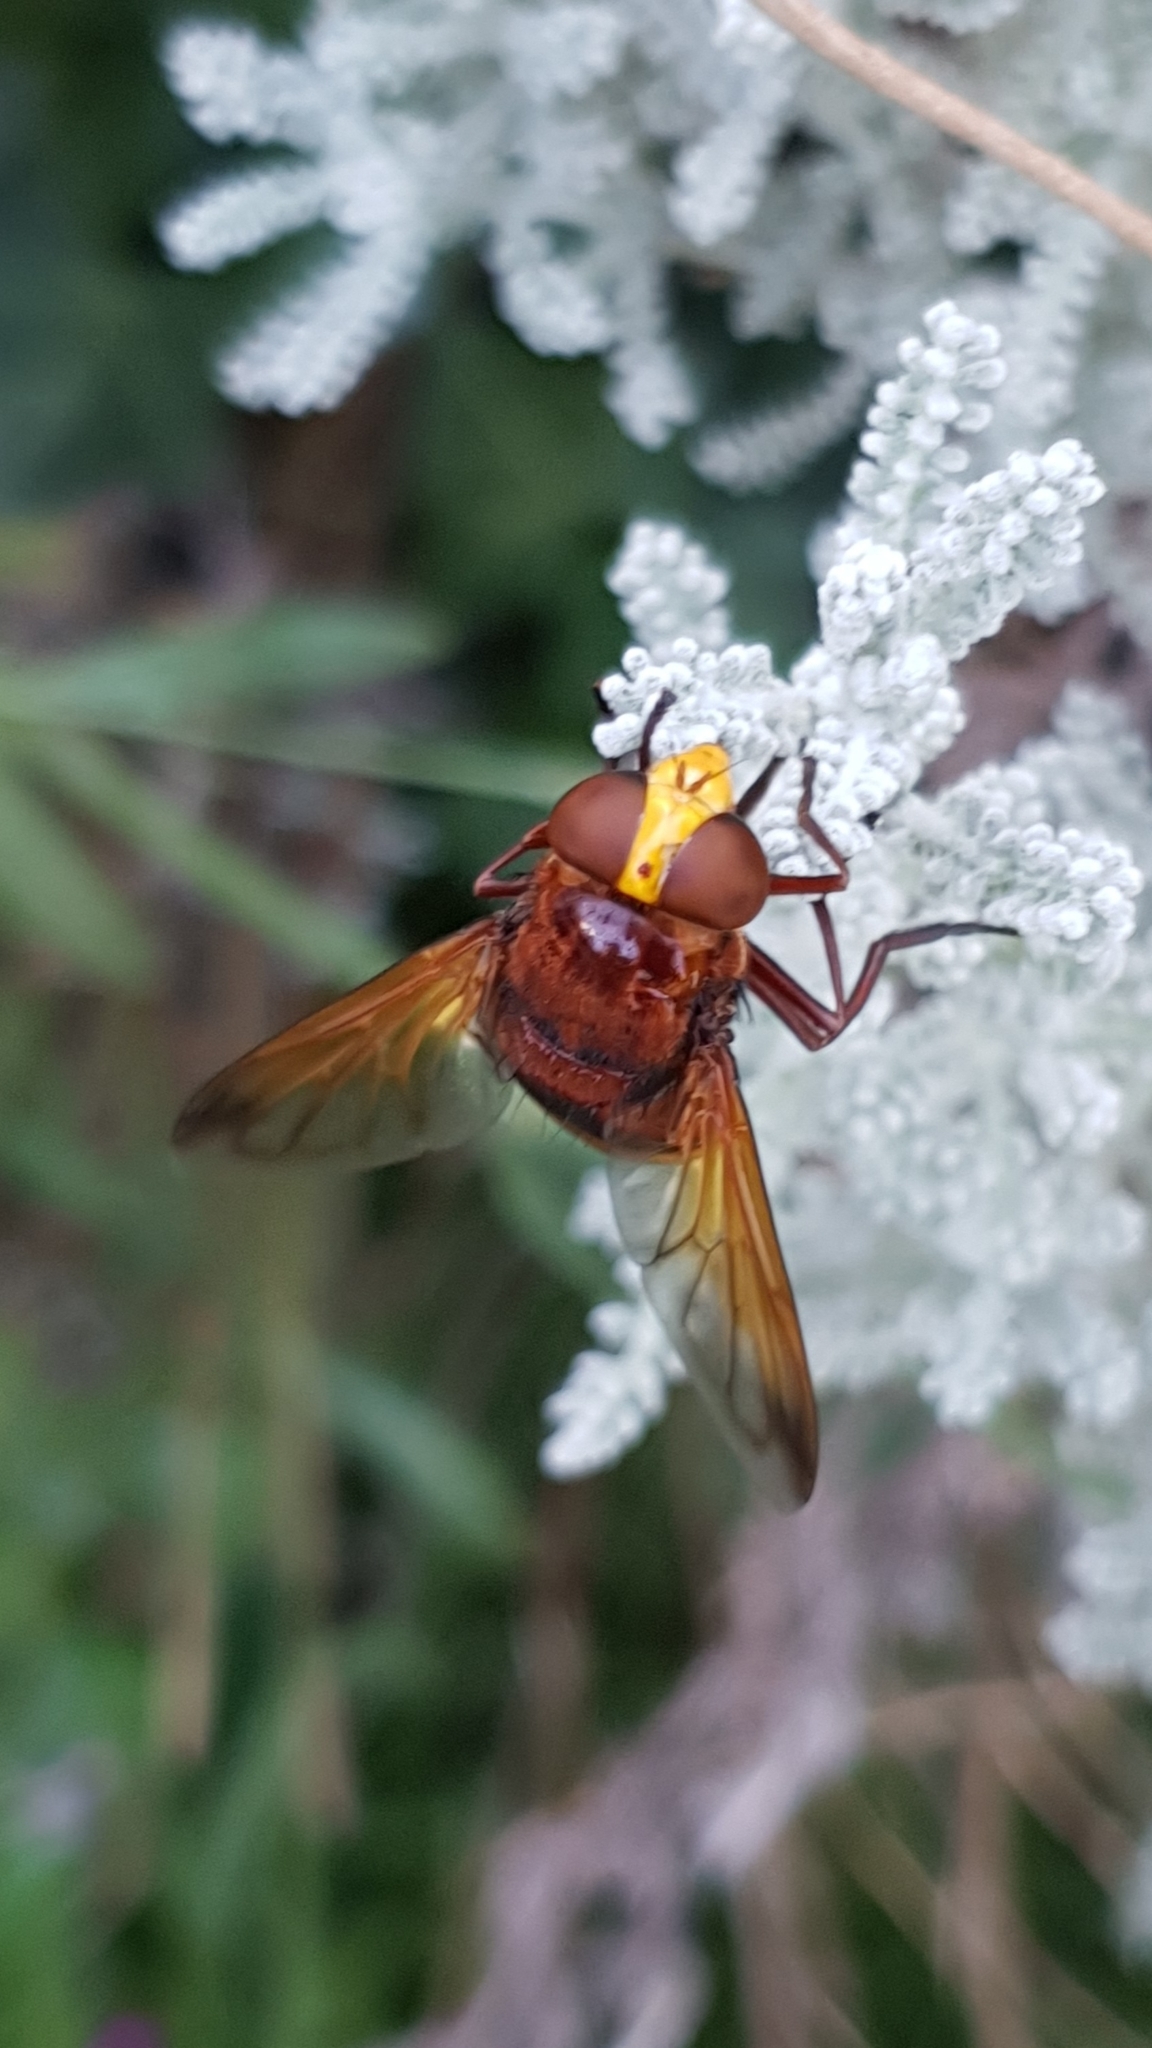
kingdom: Animalia
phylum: Arthropoda
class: Insecta
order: Diptera
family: Syrphidae
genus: Volucella
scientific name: Volucella zonaria
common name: Hornet hoverfly
